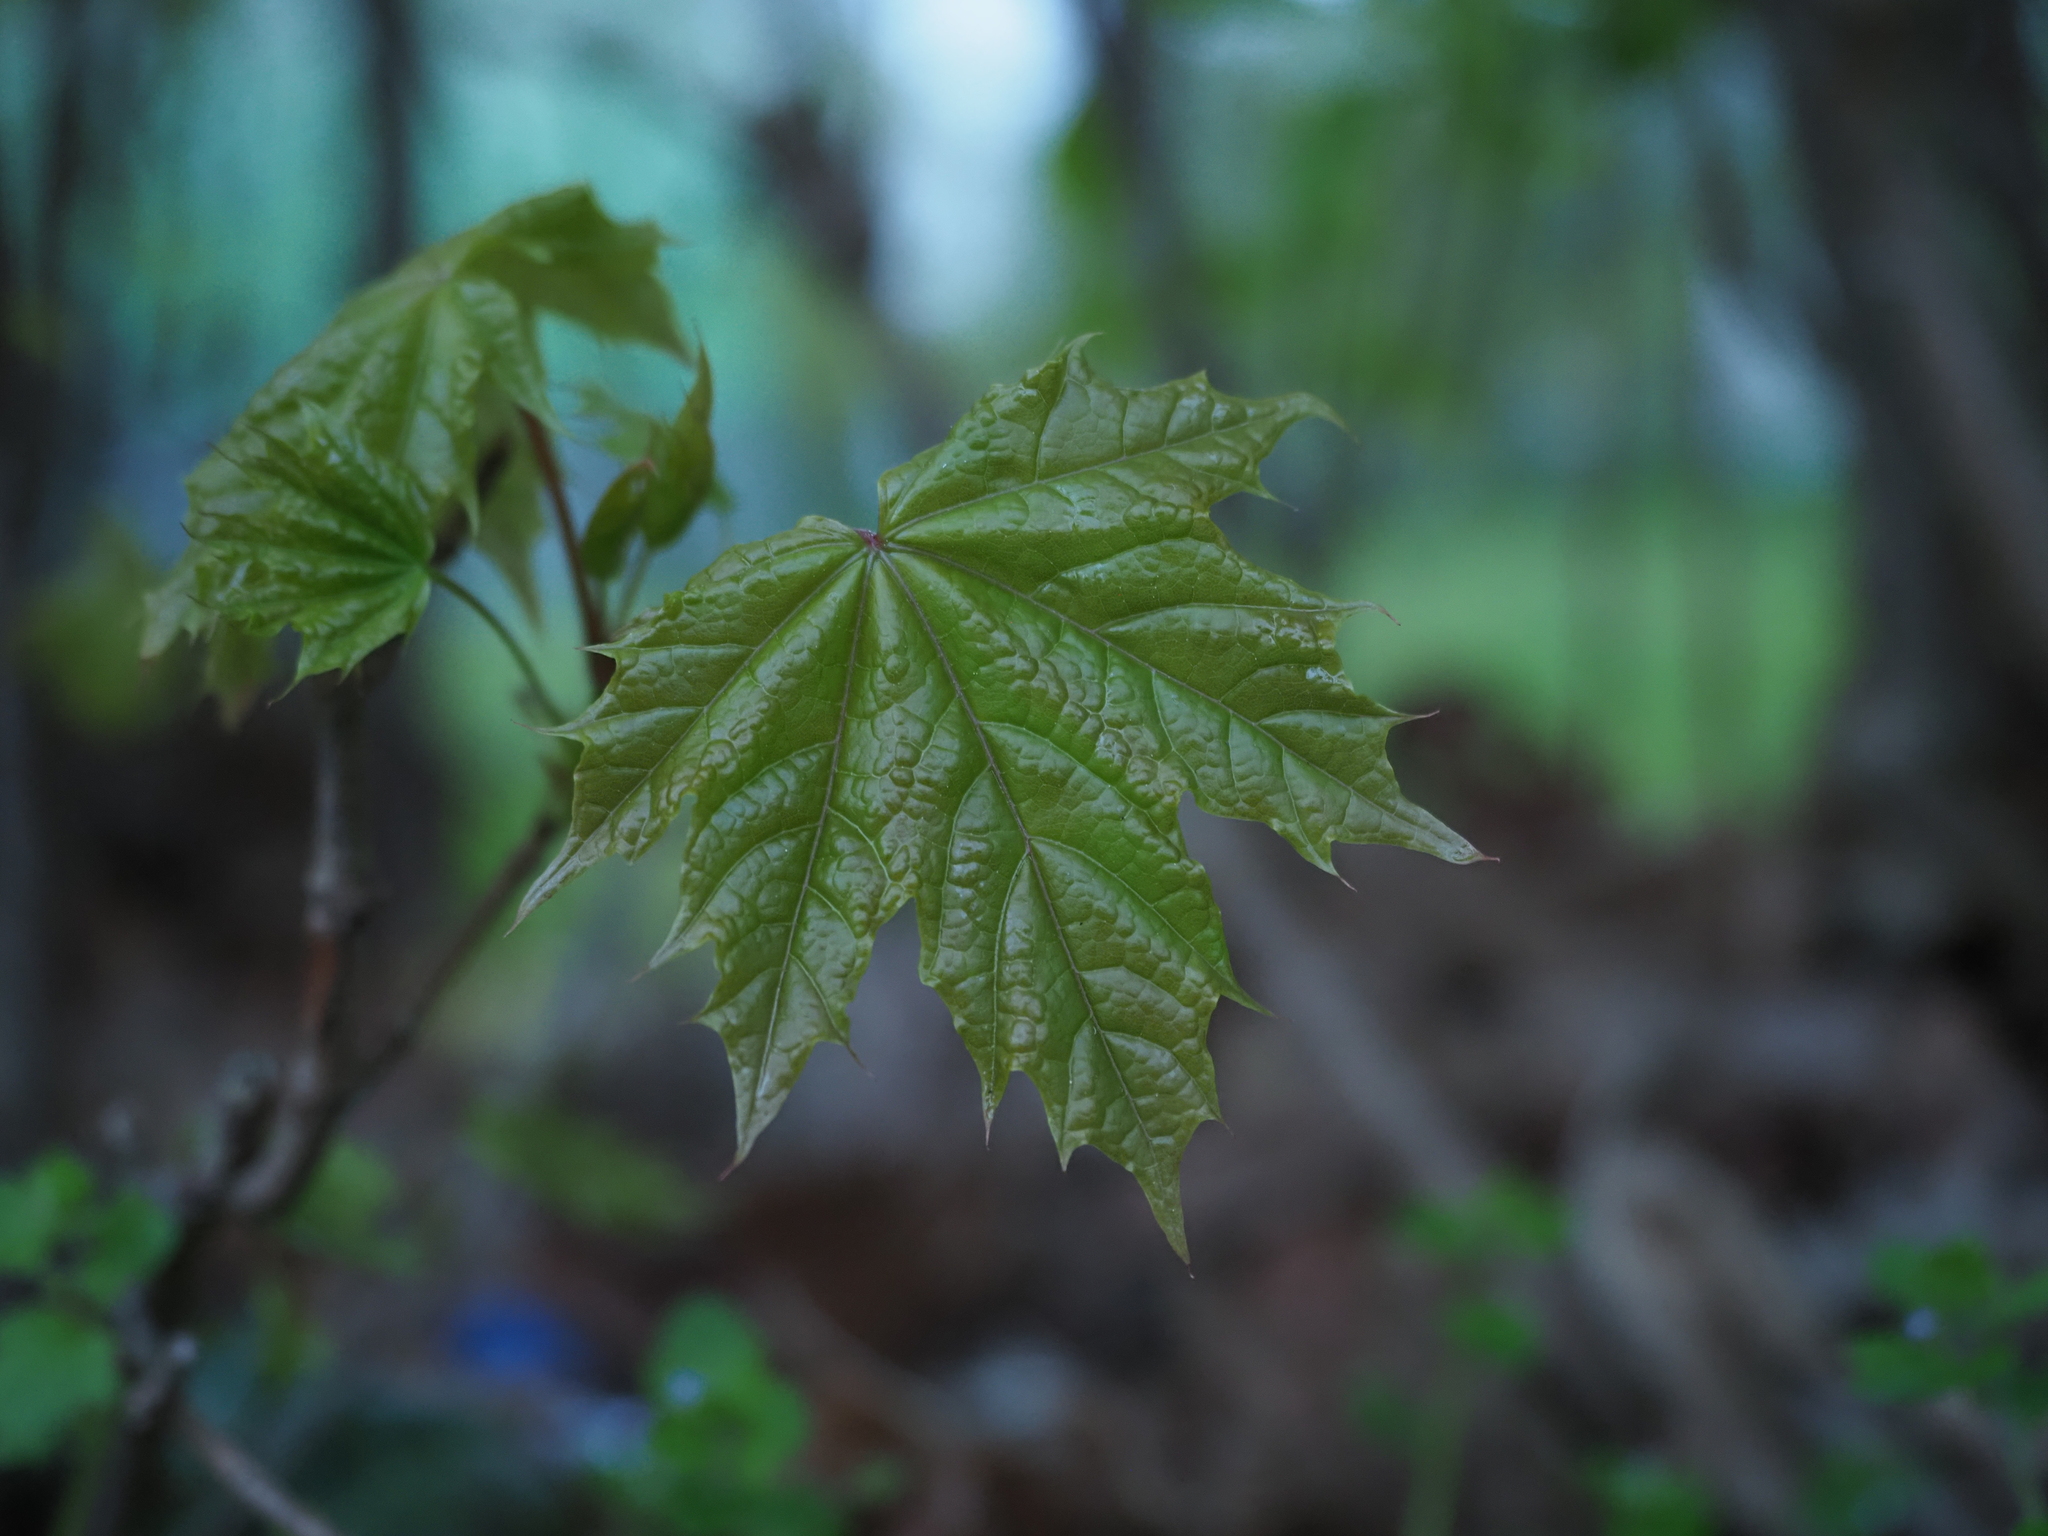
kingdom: Plantae
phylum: Tracheophyta
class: Magnoliopsida
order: Sapindales
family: Sapindaceae
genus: Acer
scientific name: Acer platanoides
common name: Norway maple
